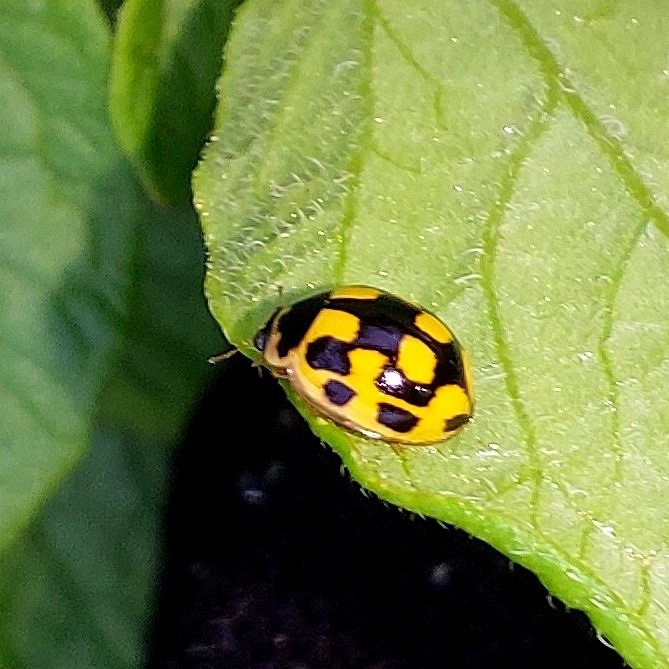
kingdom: Animalia
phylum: Arthropoda
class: Insecta
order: Coleoptera
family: Coccinellidae
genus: Propylaea
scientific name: Propylaea quatuordecimpunctata
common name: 14-spotted ladybird beetle
